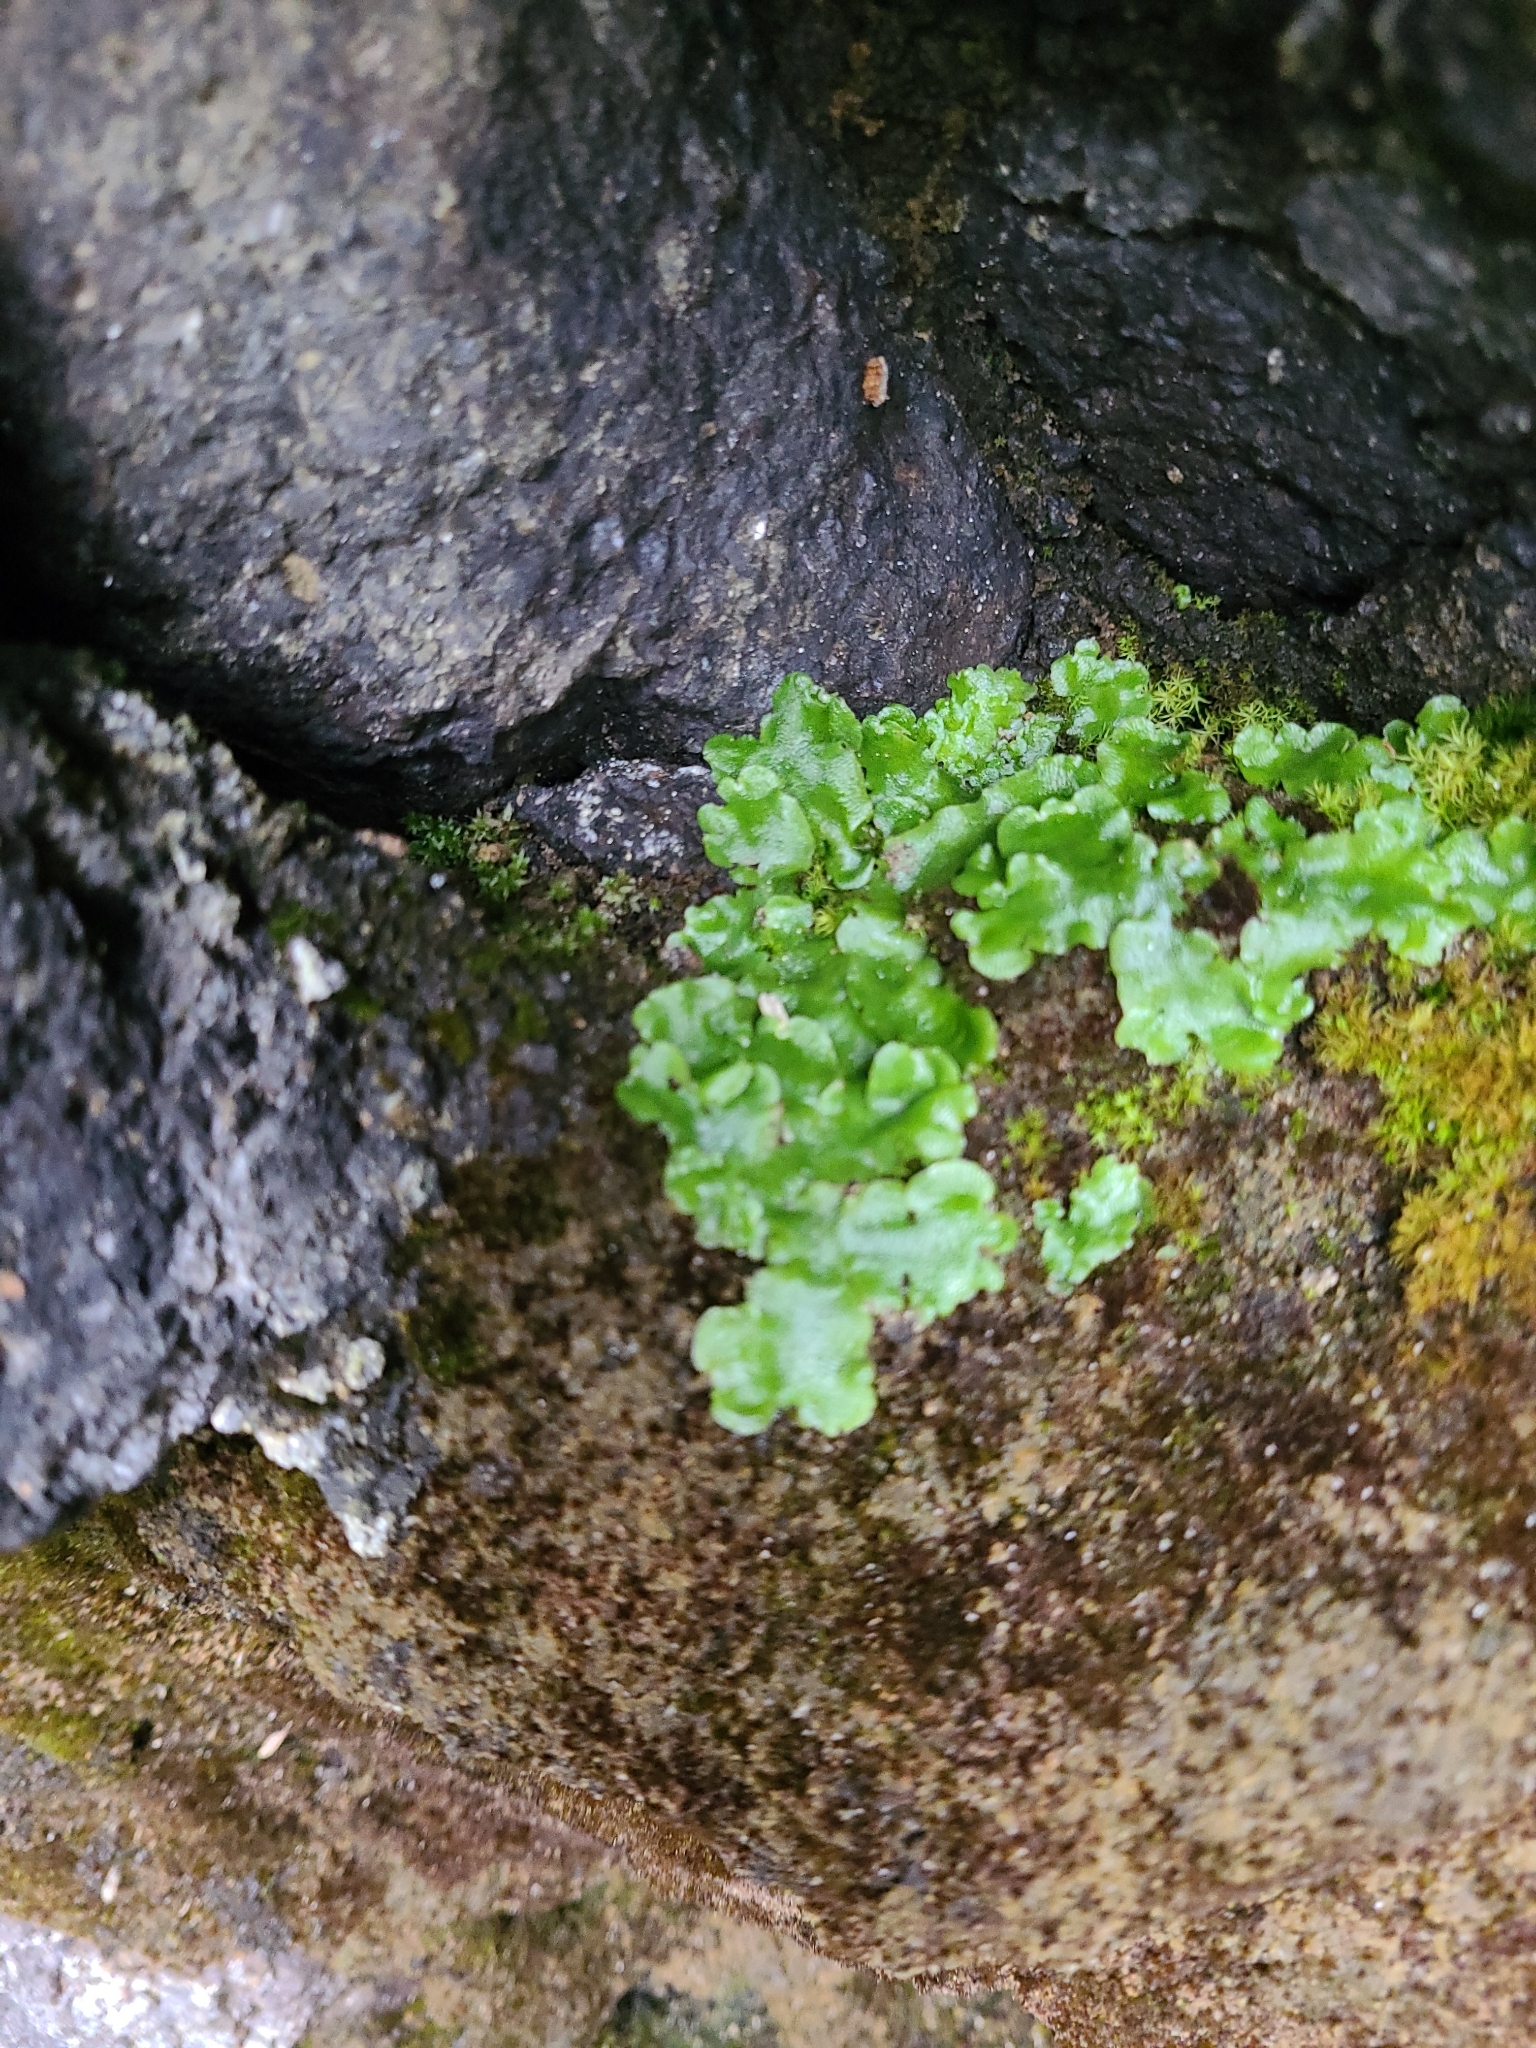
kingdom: Plantae
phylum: Marchantiophyta
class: Marchantiopsida
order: Lunulariales
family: Lunulariaceae
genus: Lunularia
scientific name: Lunularia cruciata
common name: Crescent-cup liverwort
